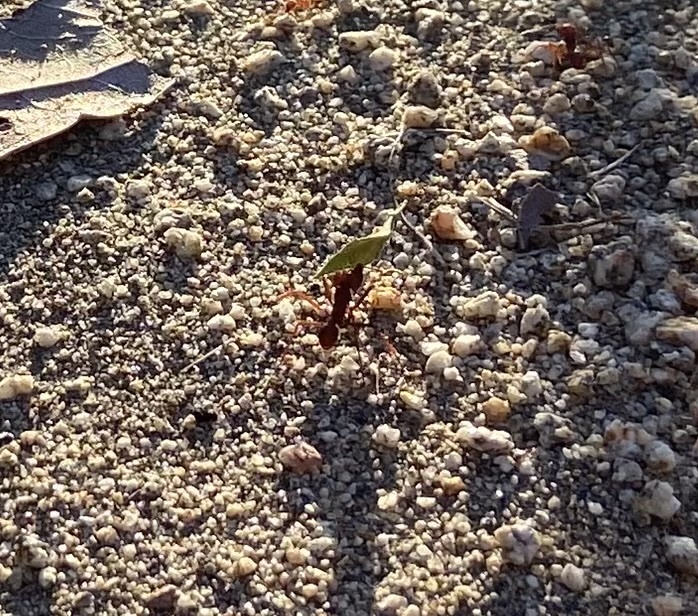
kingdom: Animalia
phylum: Arthropoda
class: Insecta
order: Hymenoptera
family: Formicidae
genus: Atta
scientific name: Atta mexicana
